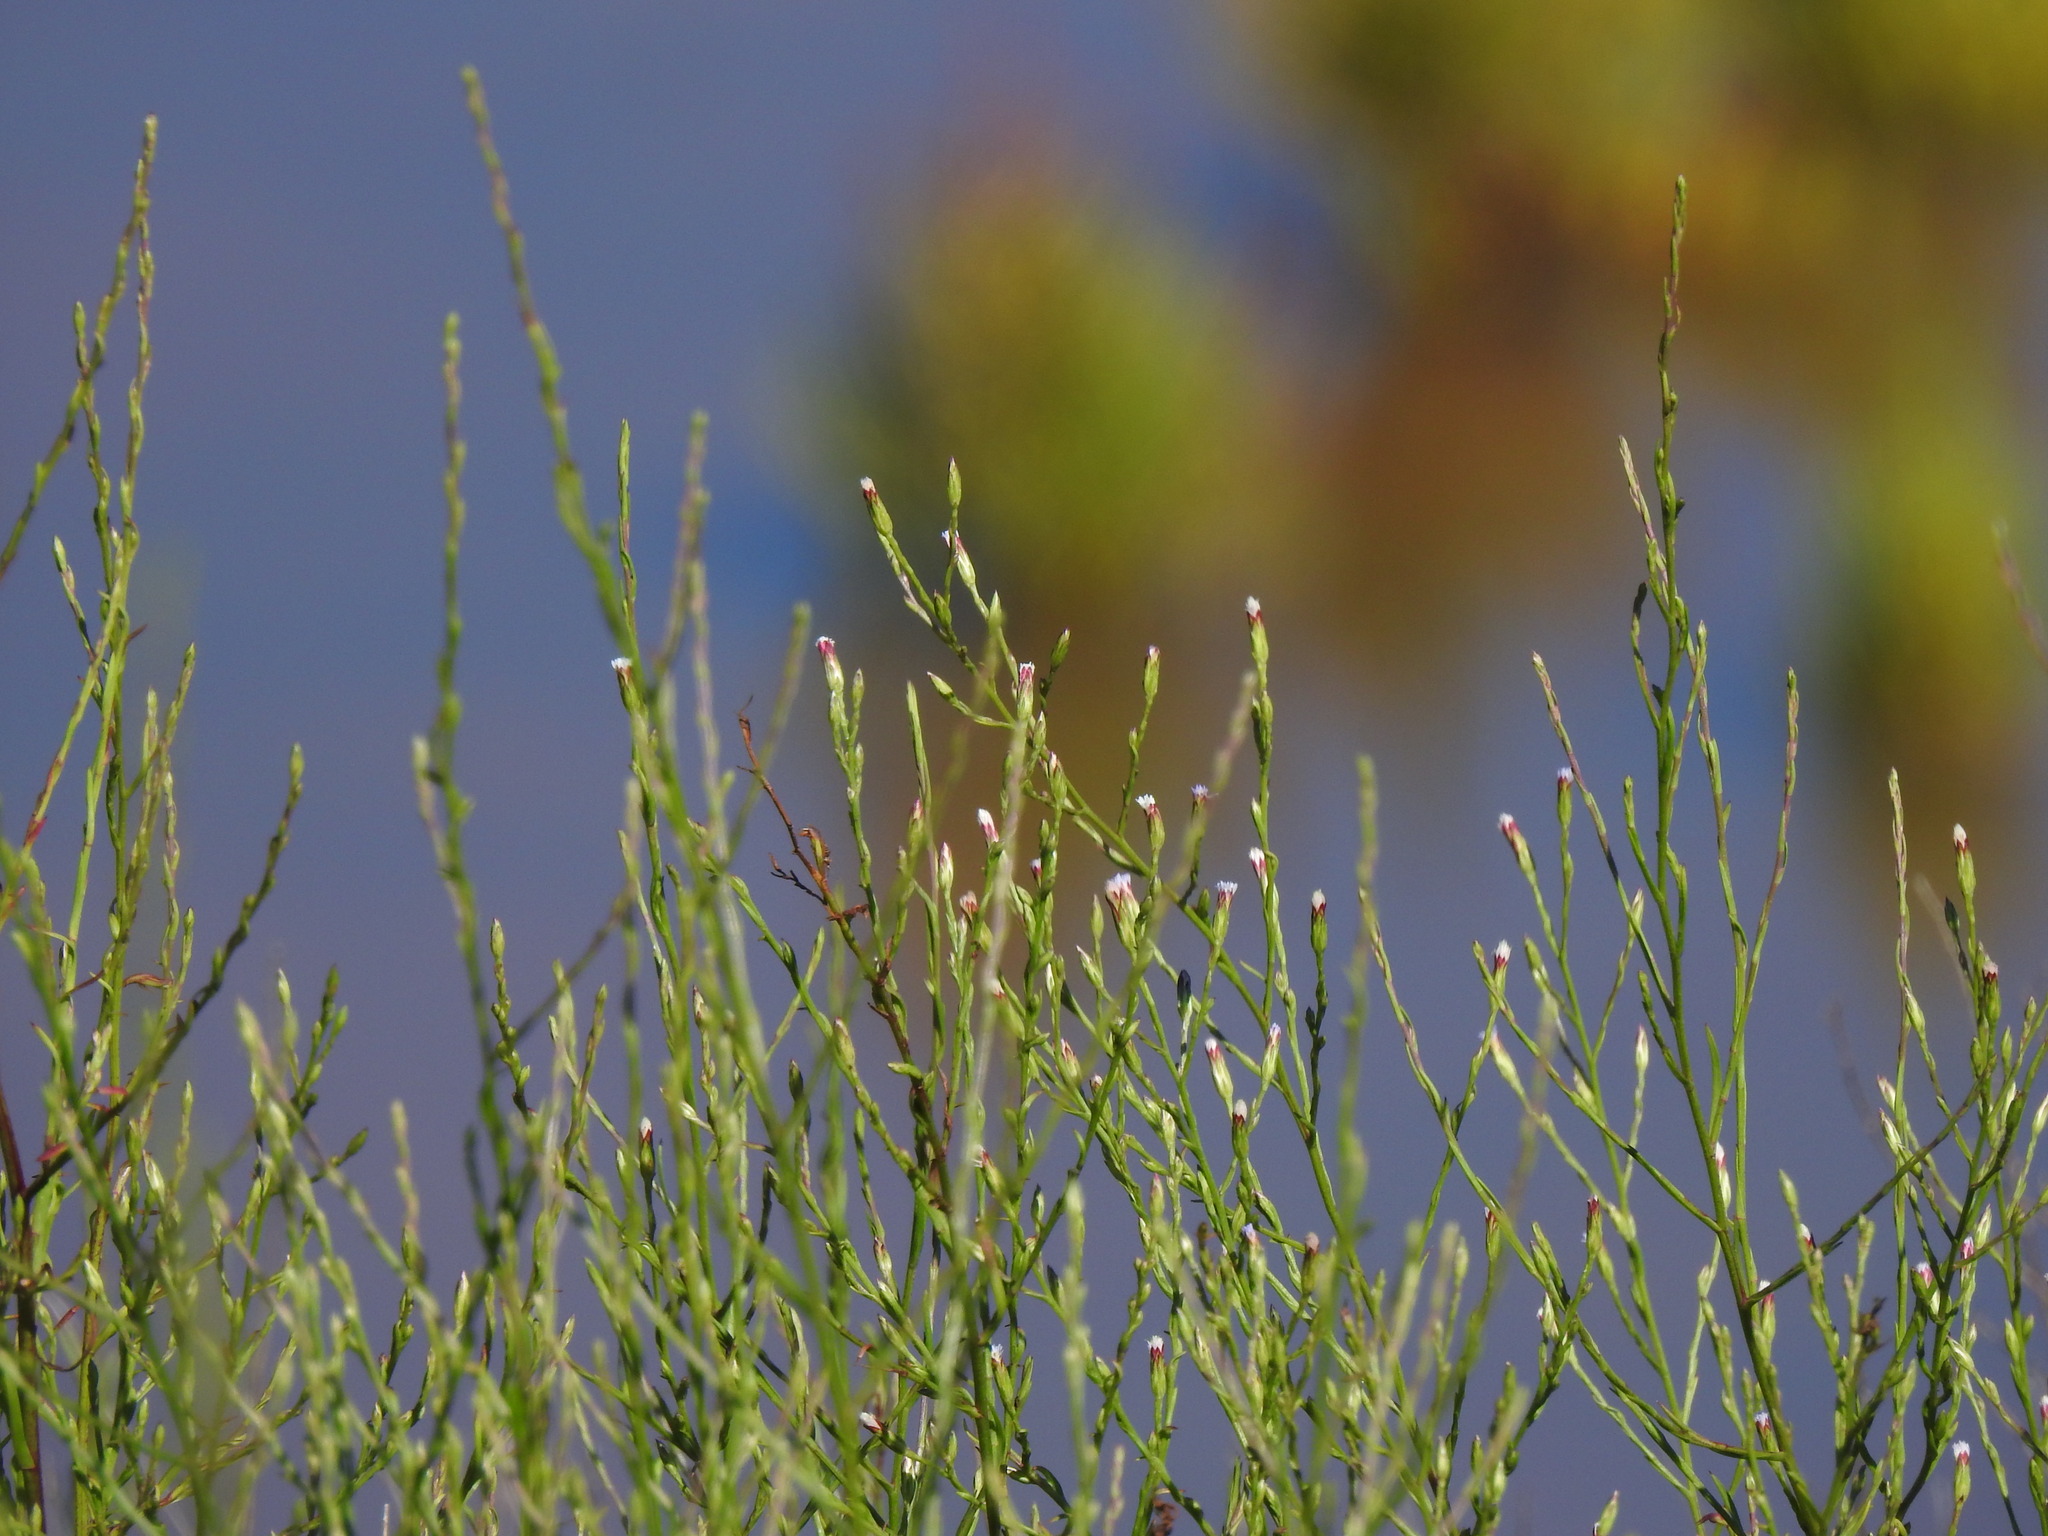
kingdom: Plantae
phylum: Tracheophyta
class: Magnoliopsida
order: Asterales
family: Asteraceae
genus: Symphyotrichum
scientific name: Symphyotrichum squamatum
